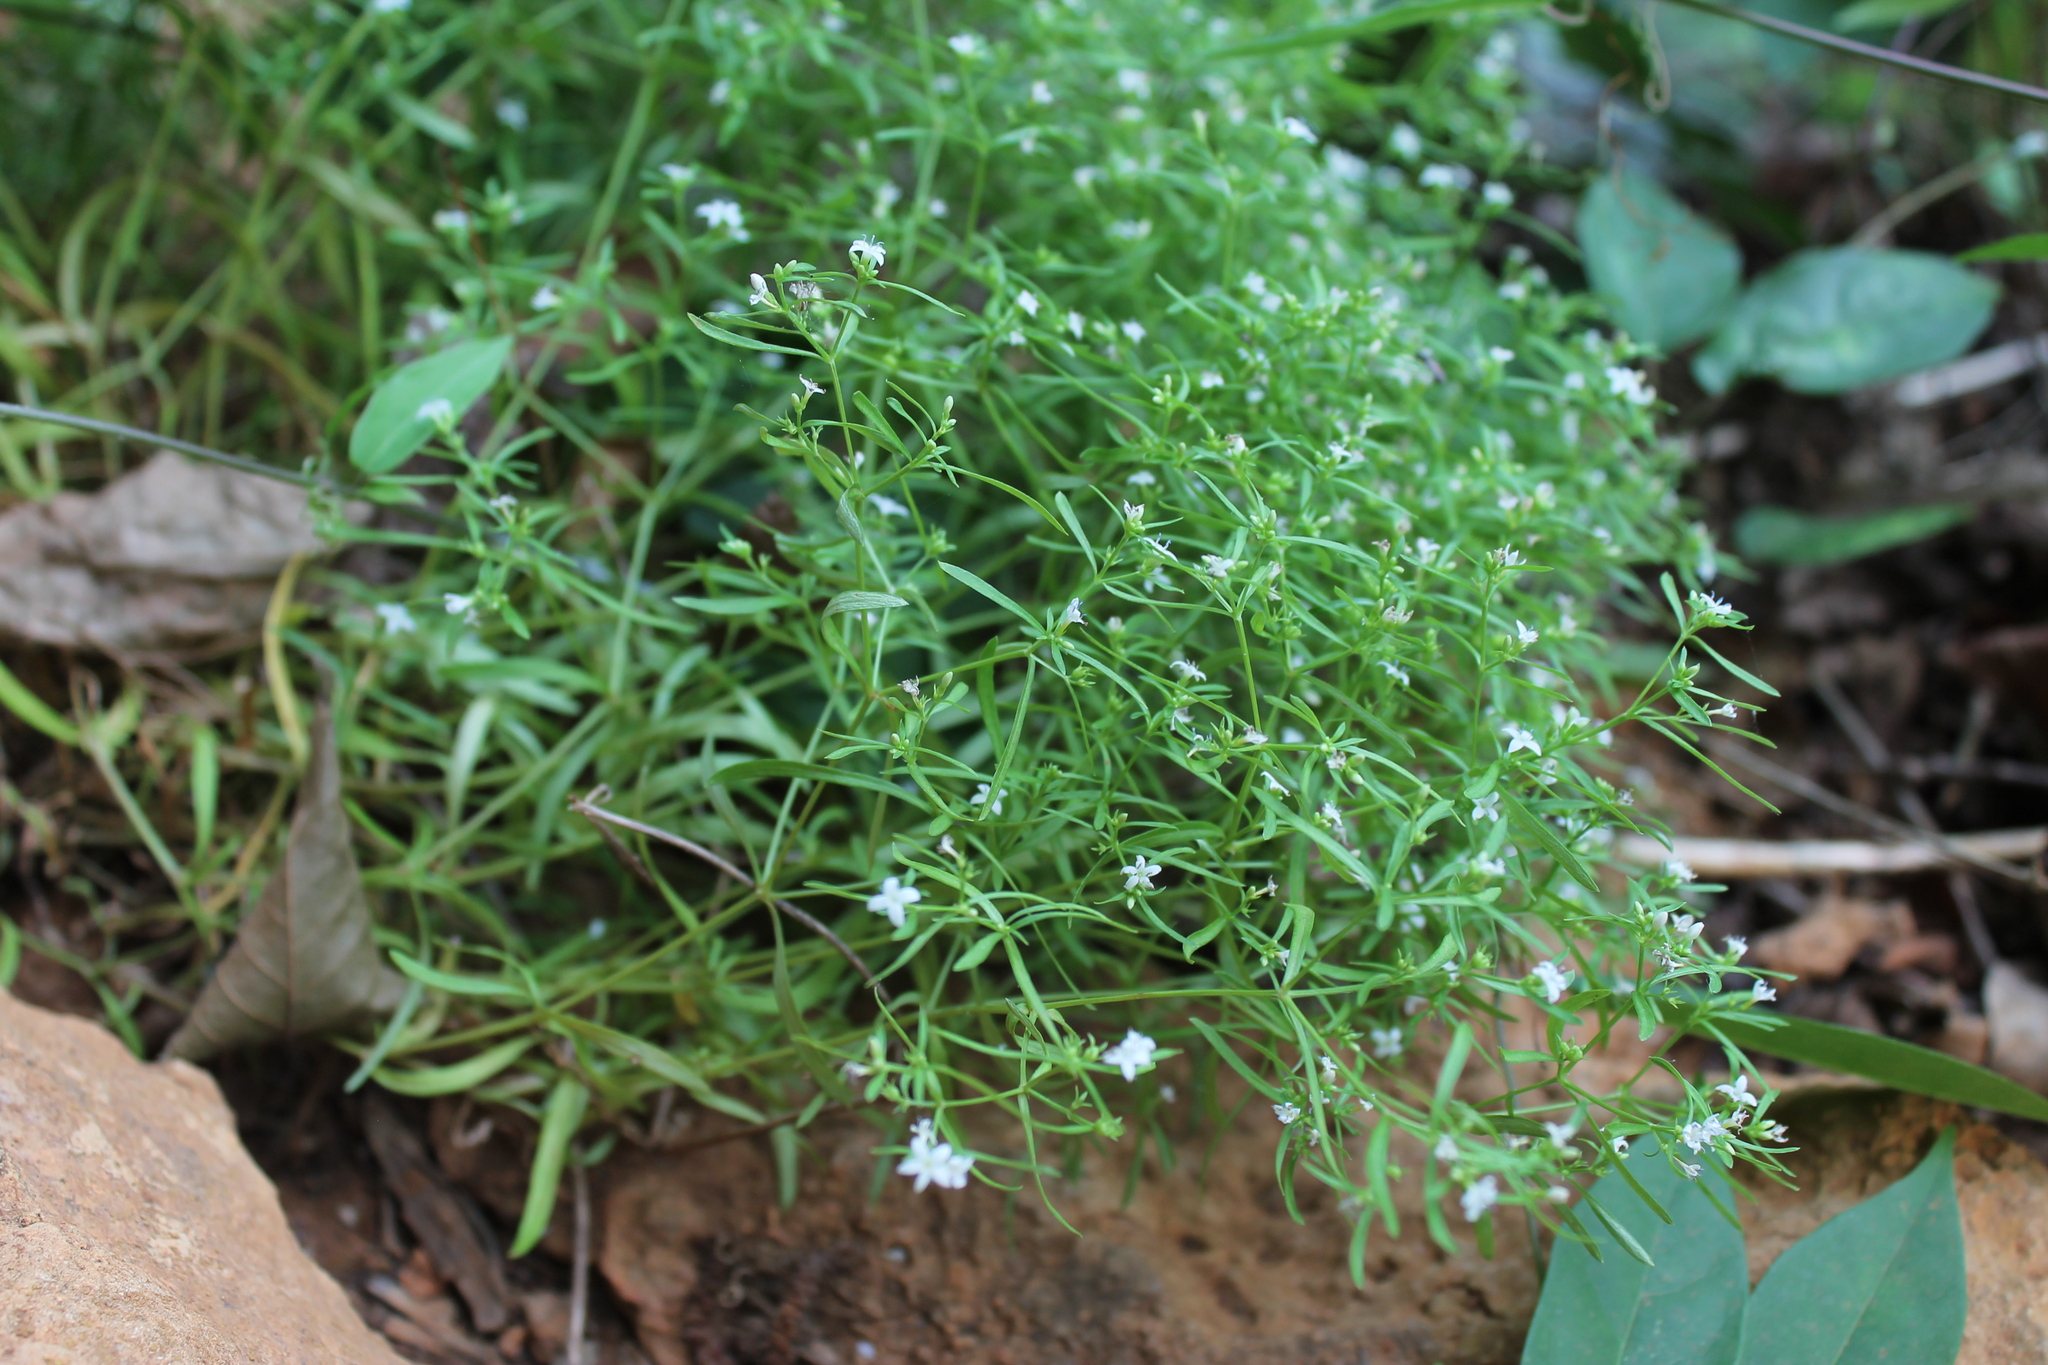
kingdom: Plantae
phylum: Tracheophyta
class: Magnoliopsida
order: Gentianales
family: Rubiaceae
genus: Houstonia
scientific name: Houstonia purpurea
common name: Summer bluet
